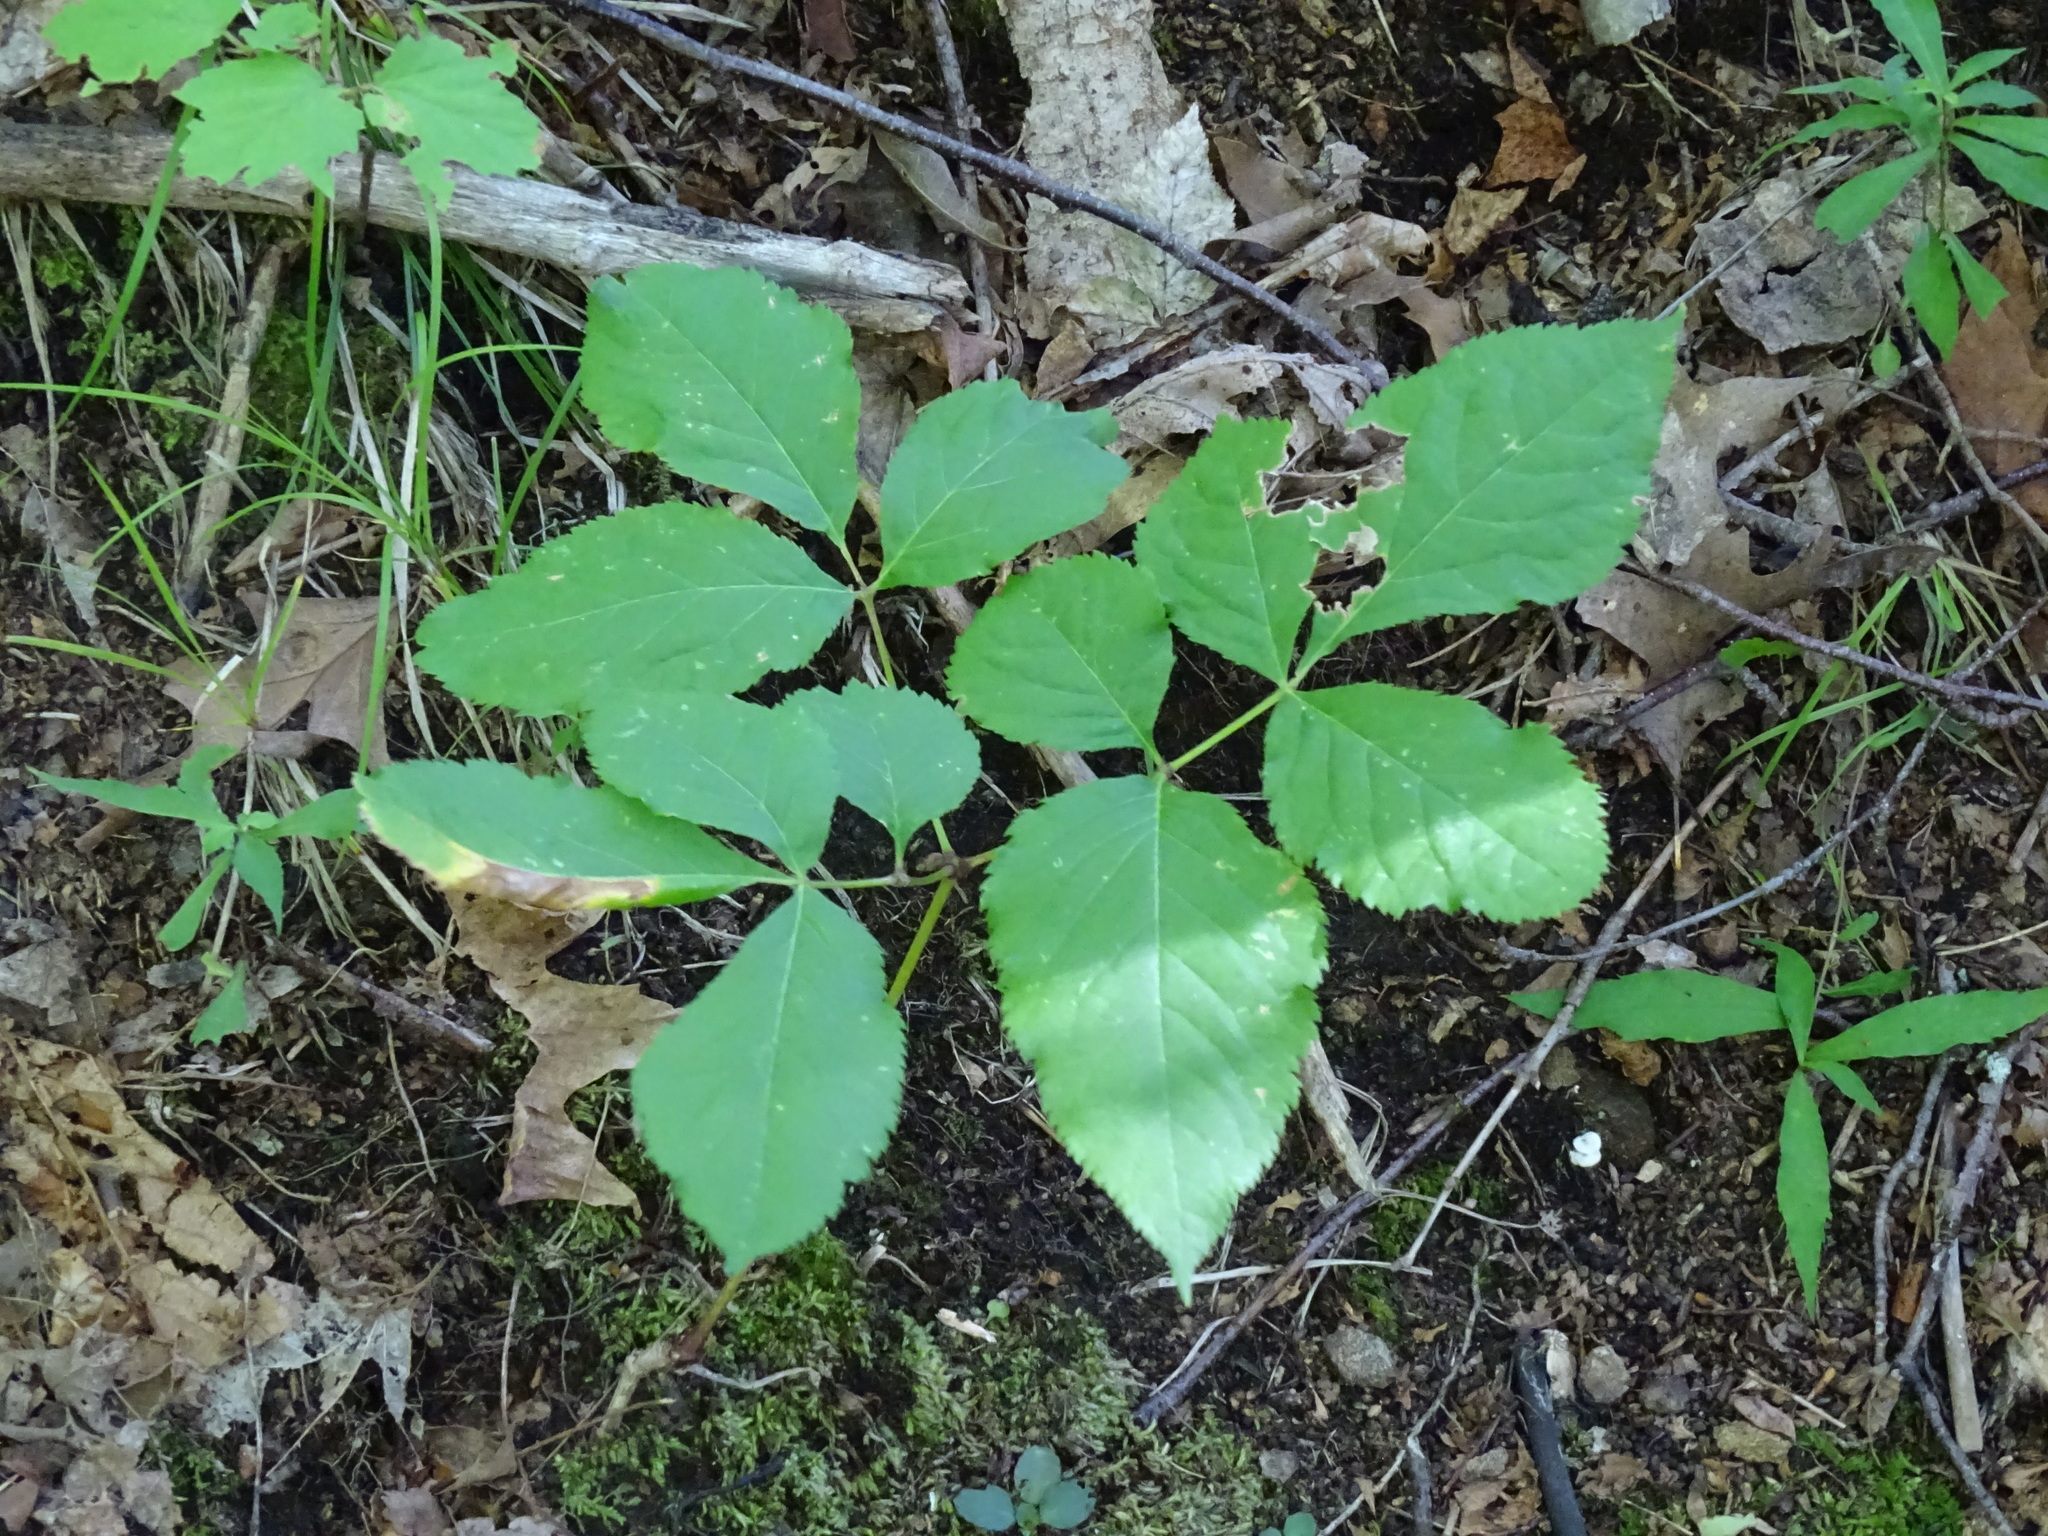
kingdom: Plantae
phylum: Tracheophyta
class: Magnoliopsida
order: Apiales
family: Araliaceae
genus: Aralia
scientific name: Aralia nudicaulis
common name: Wild sarsaparilla
